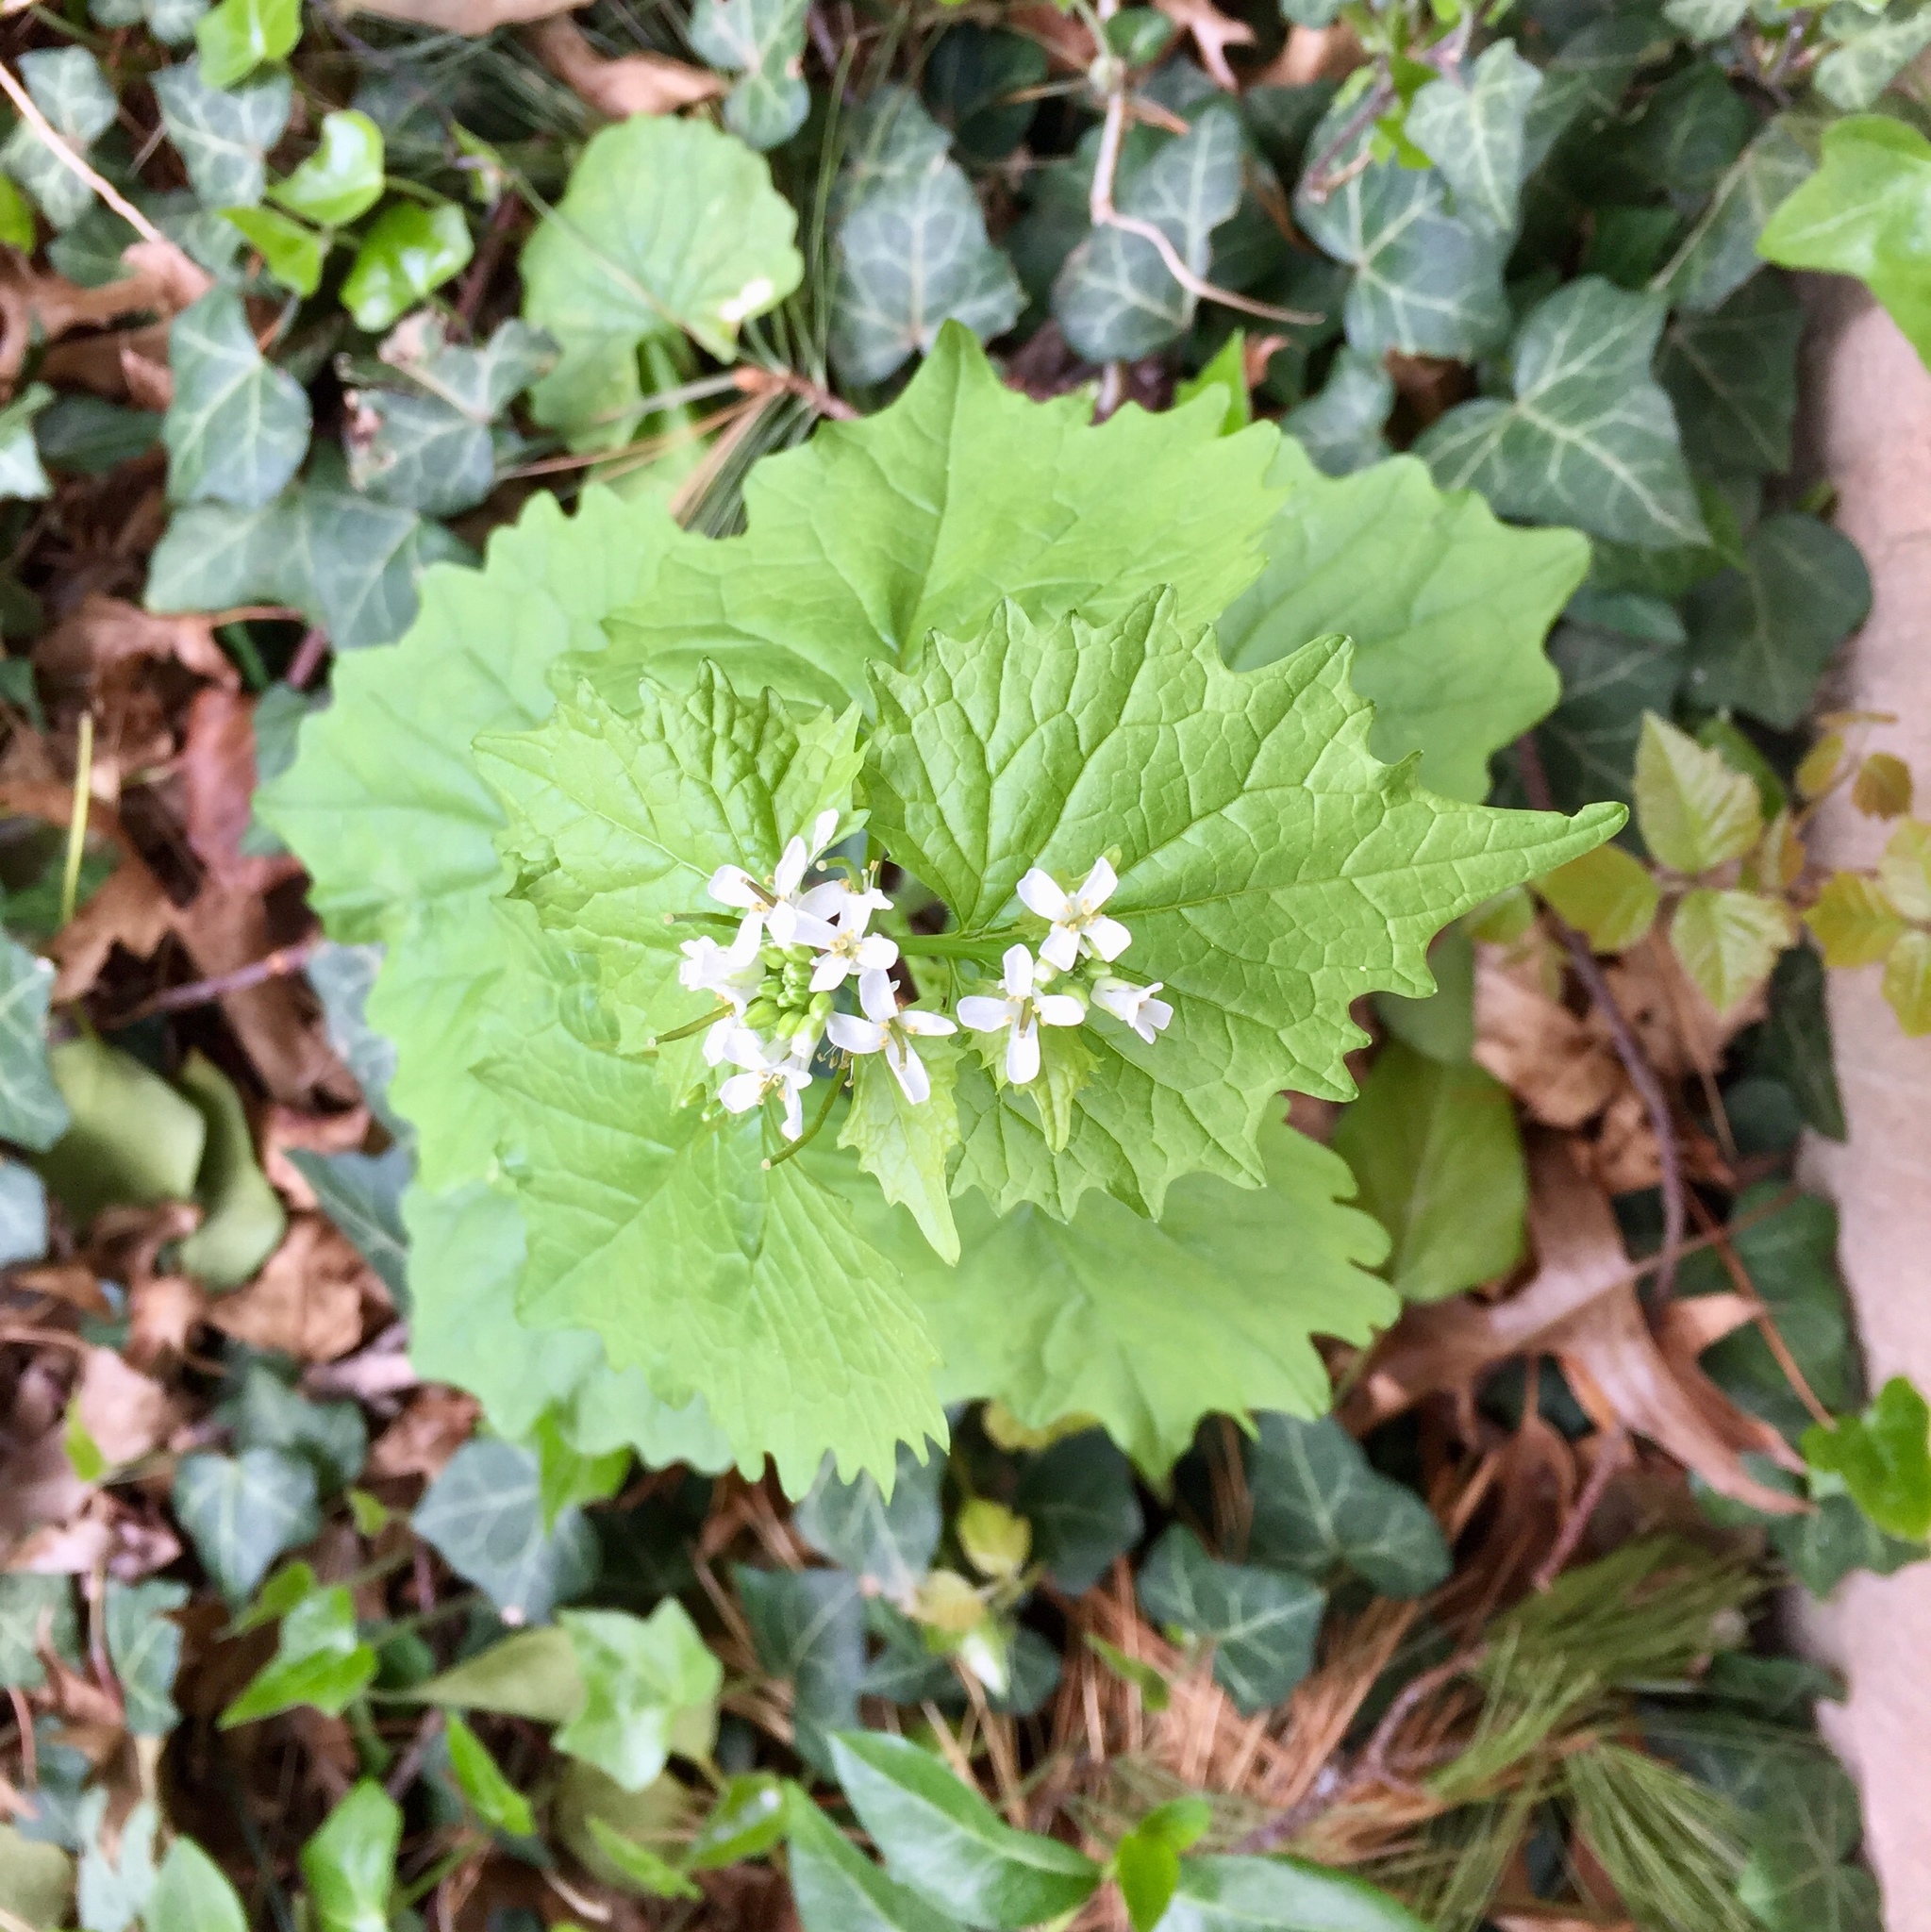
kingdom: Plantae
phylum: Tracheophyta
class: Magnoliopsida
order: Brassicales
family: Brassicaceae
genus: Alliaria
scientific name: Alliaria petiolata
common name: Garlic mustard
